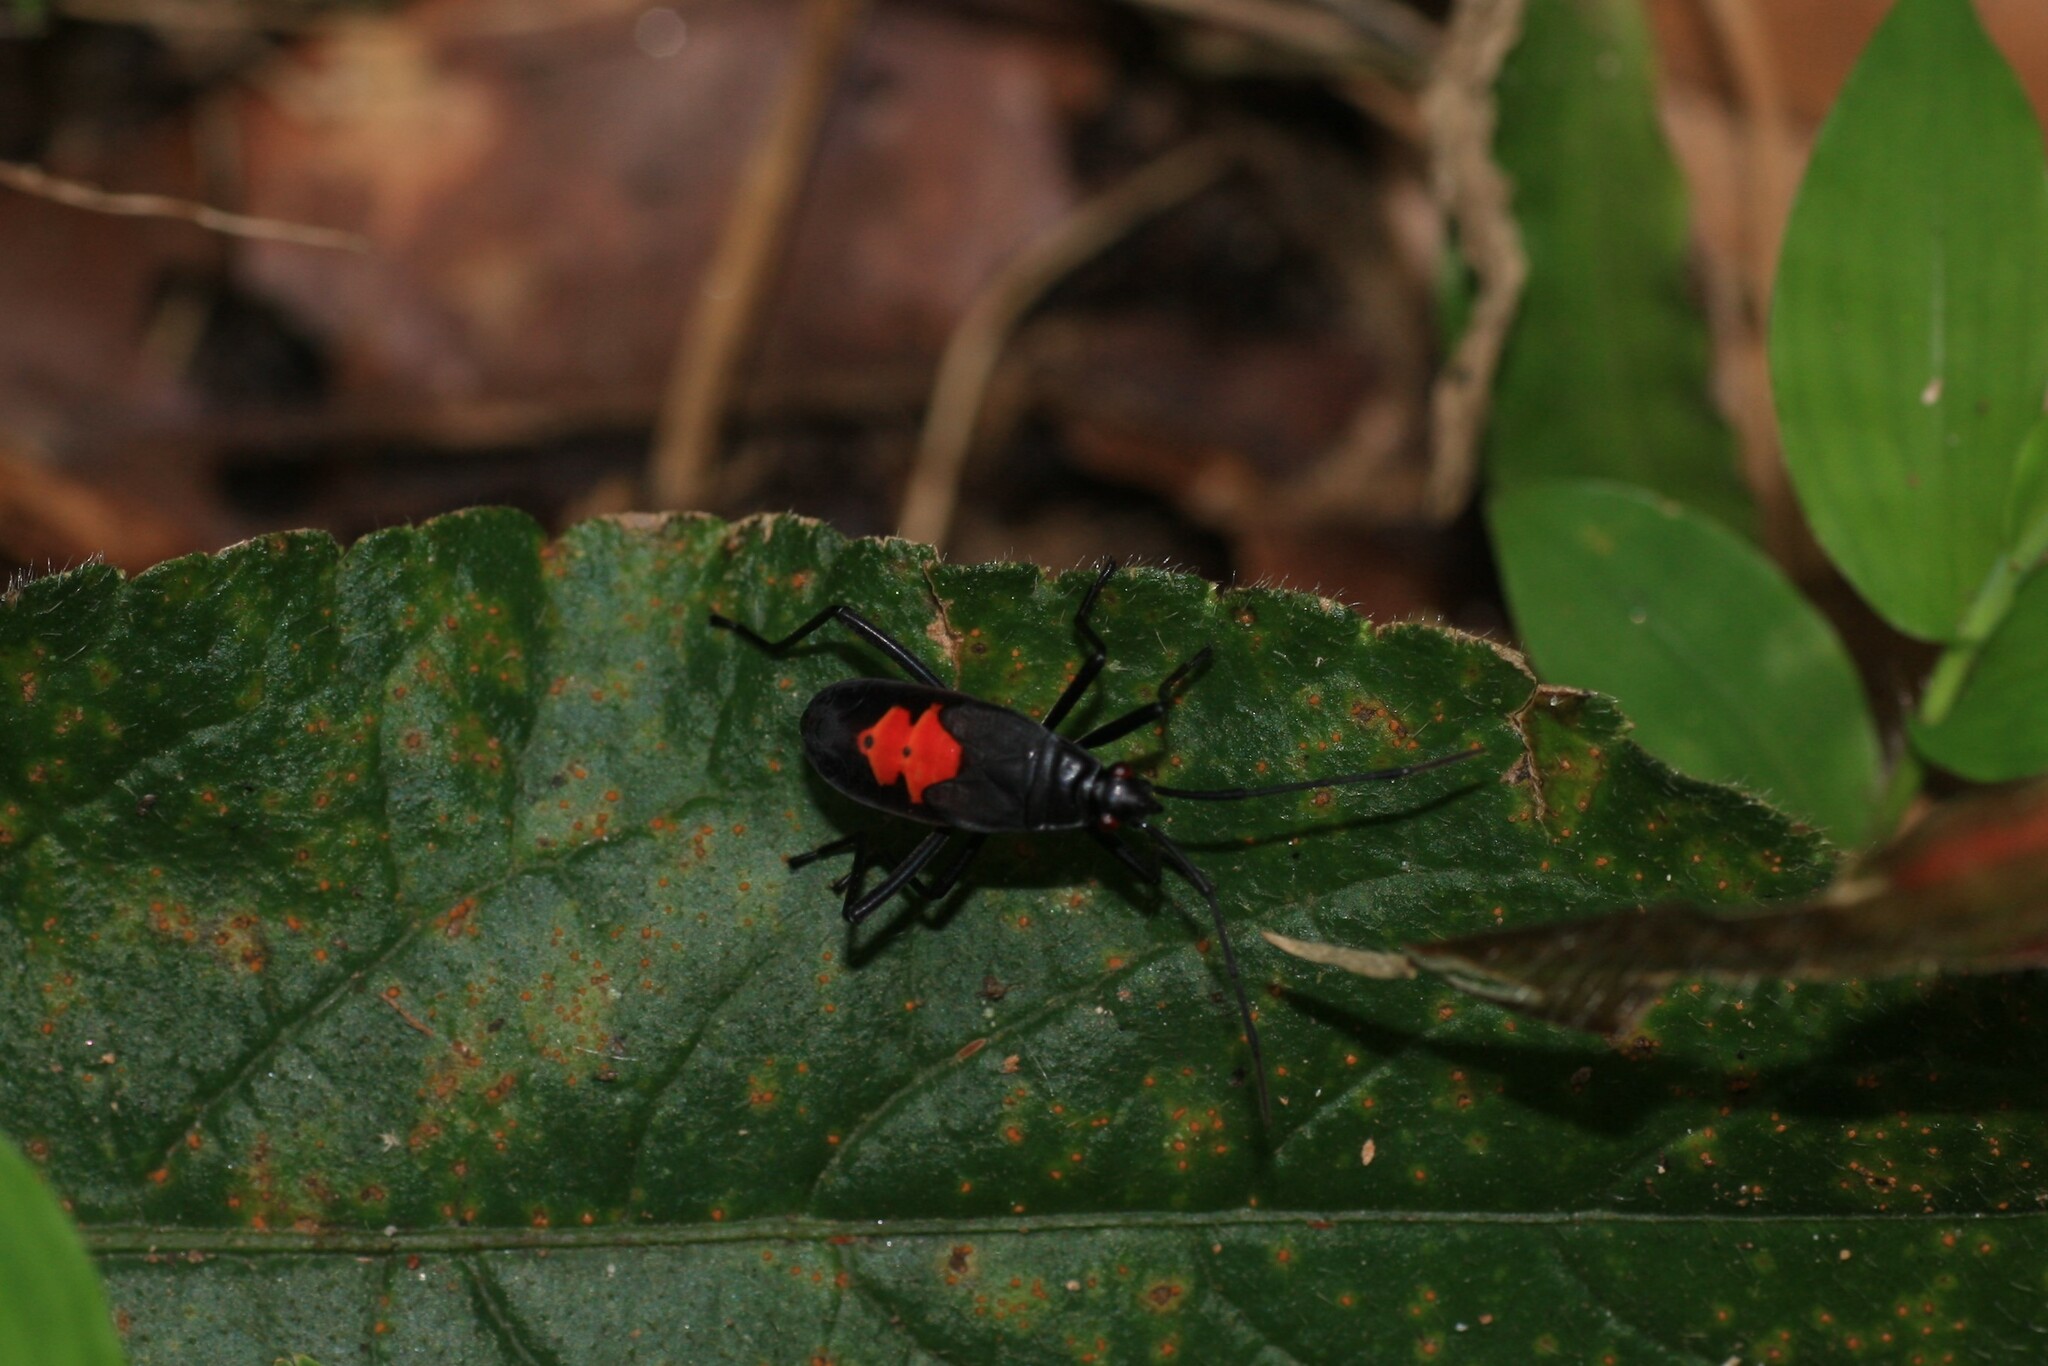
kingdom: Animalia
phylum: Arthropoda
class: Insecta
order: Hemiptera
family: Pyrrhocoridae
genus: Melamphaus
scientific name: Melamphaus
